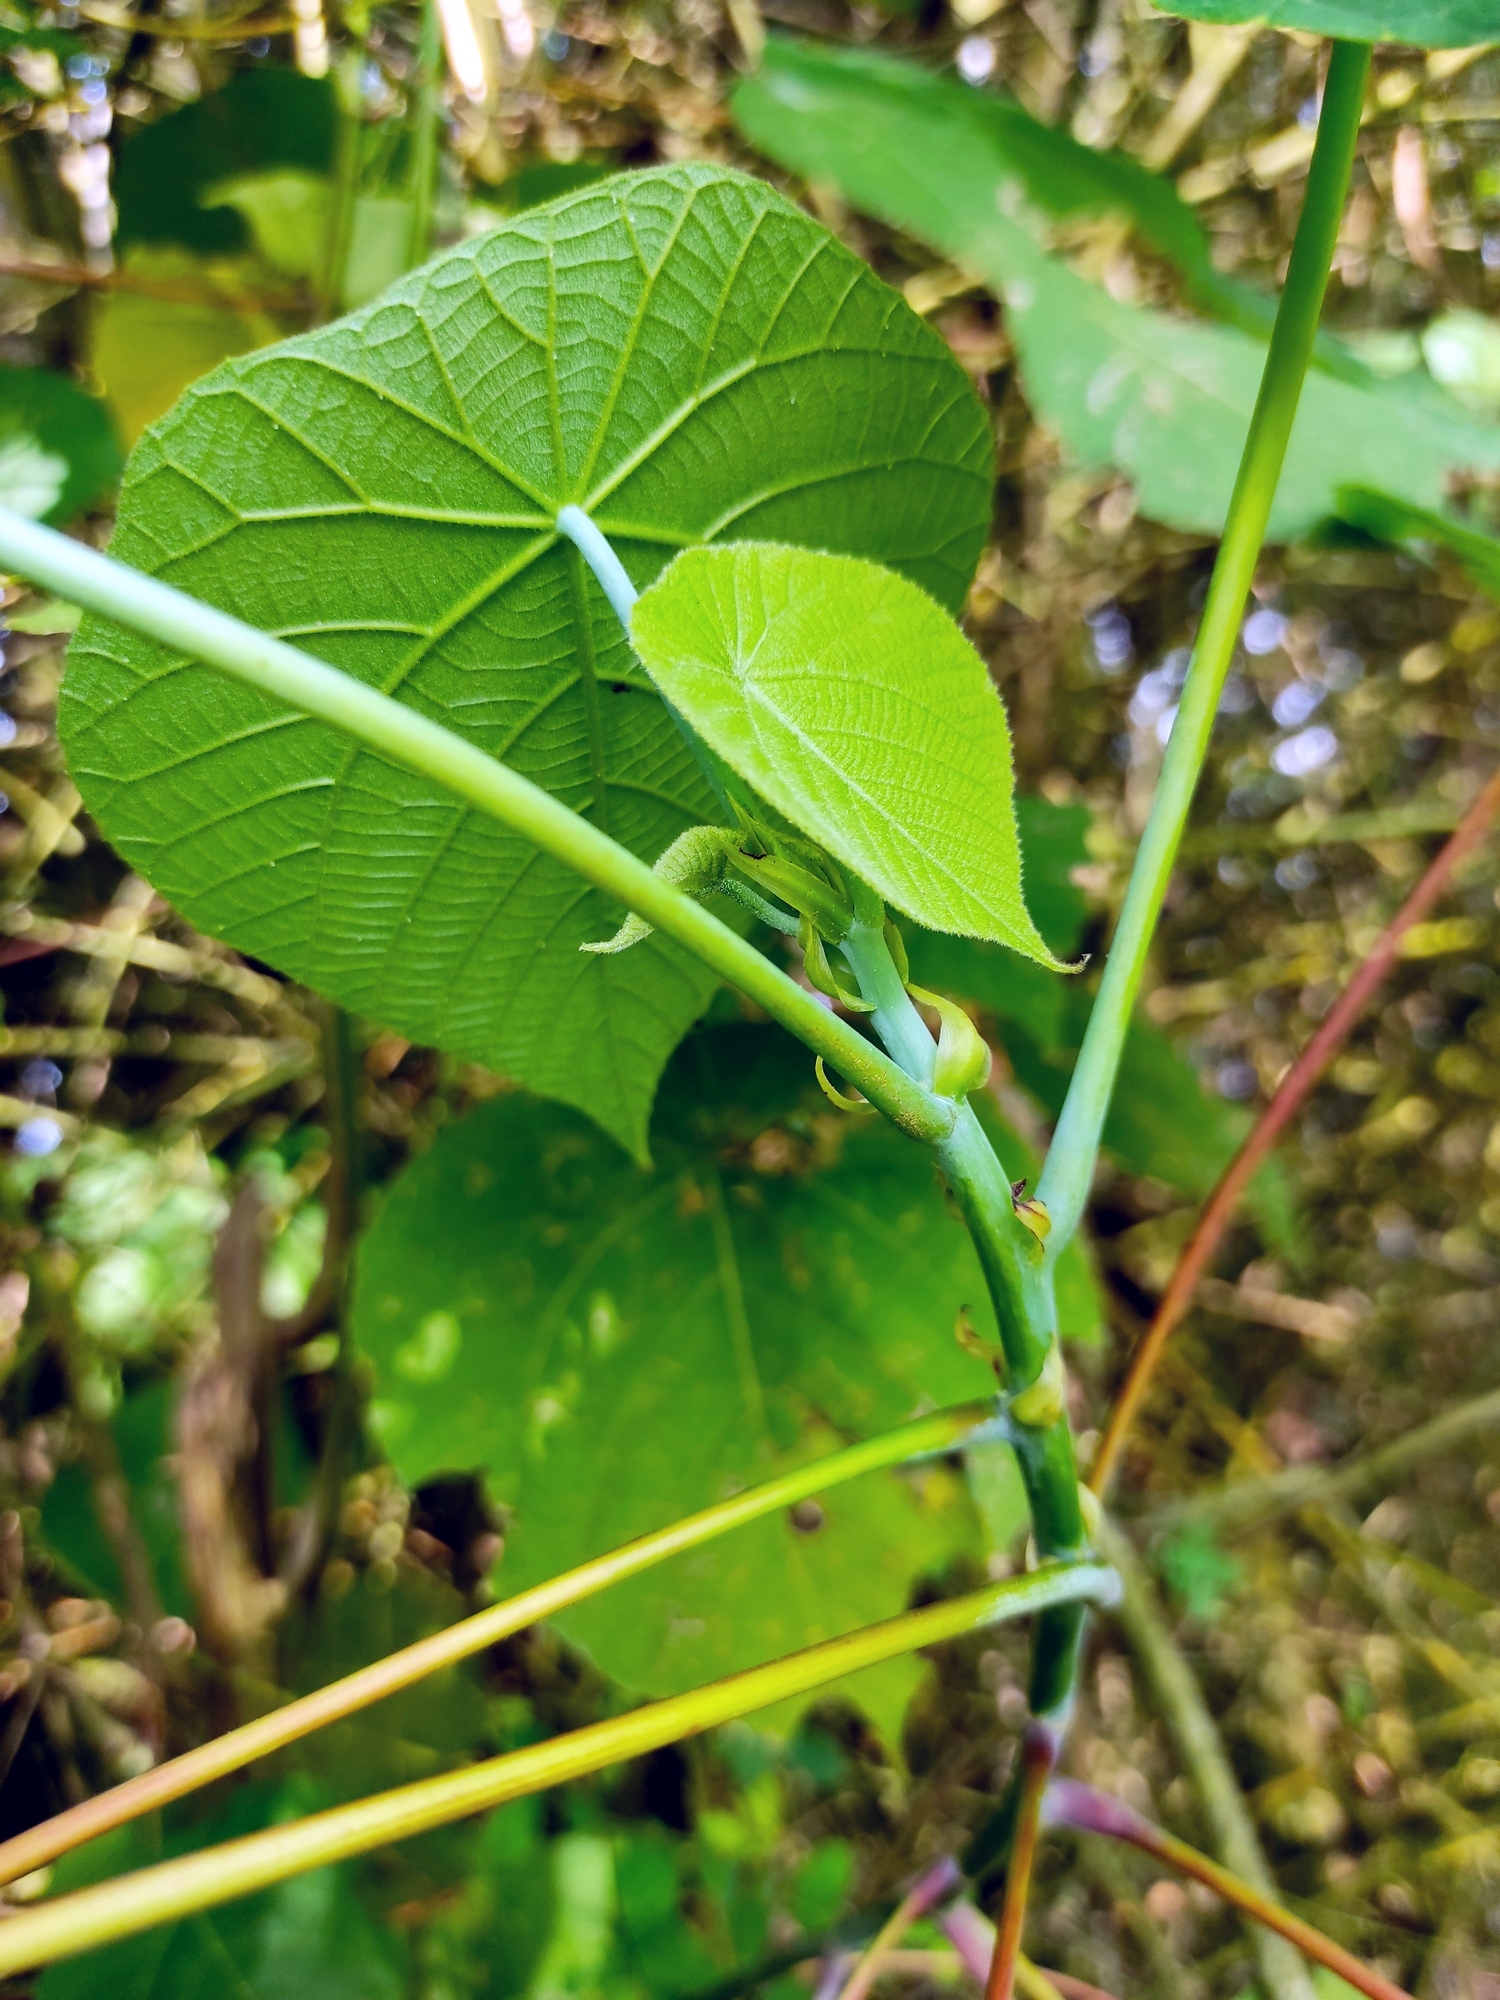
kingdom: Plantae
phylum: Tracheophyta
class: Magnoliopsida
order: Malpighiales
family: Euphorbiaceae
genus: Macaranga
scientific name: Macaranga tanarius
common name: Parasol leaf tree
